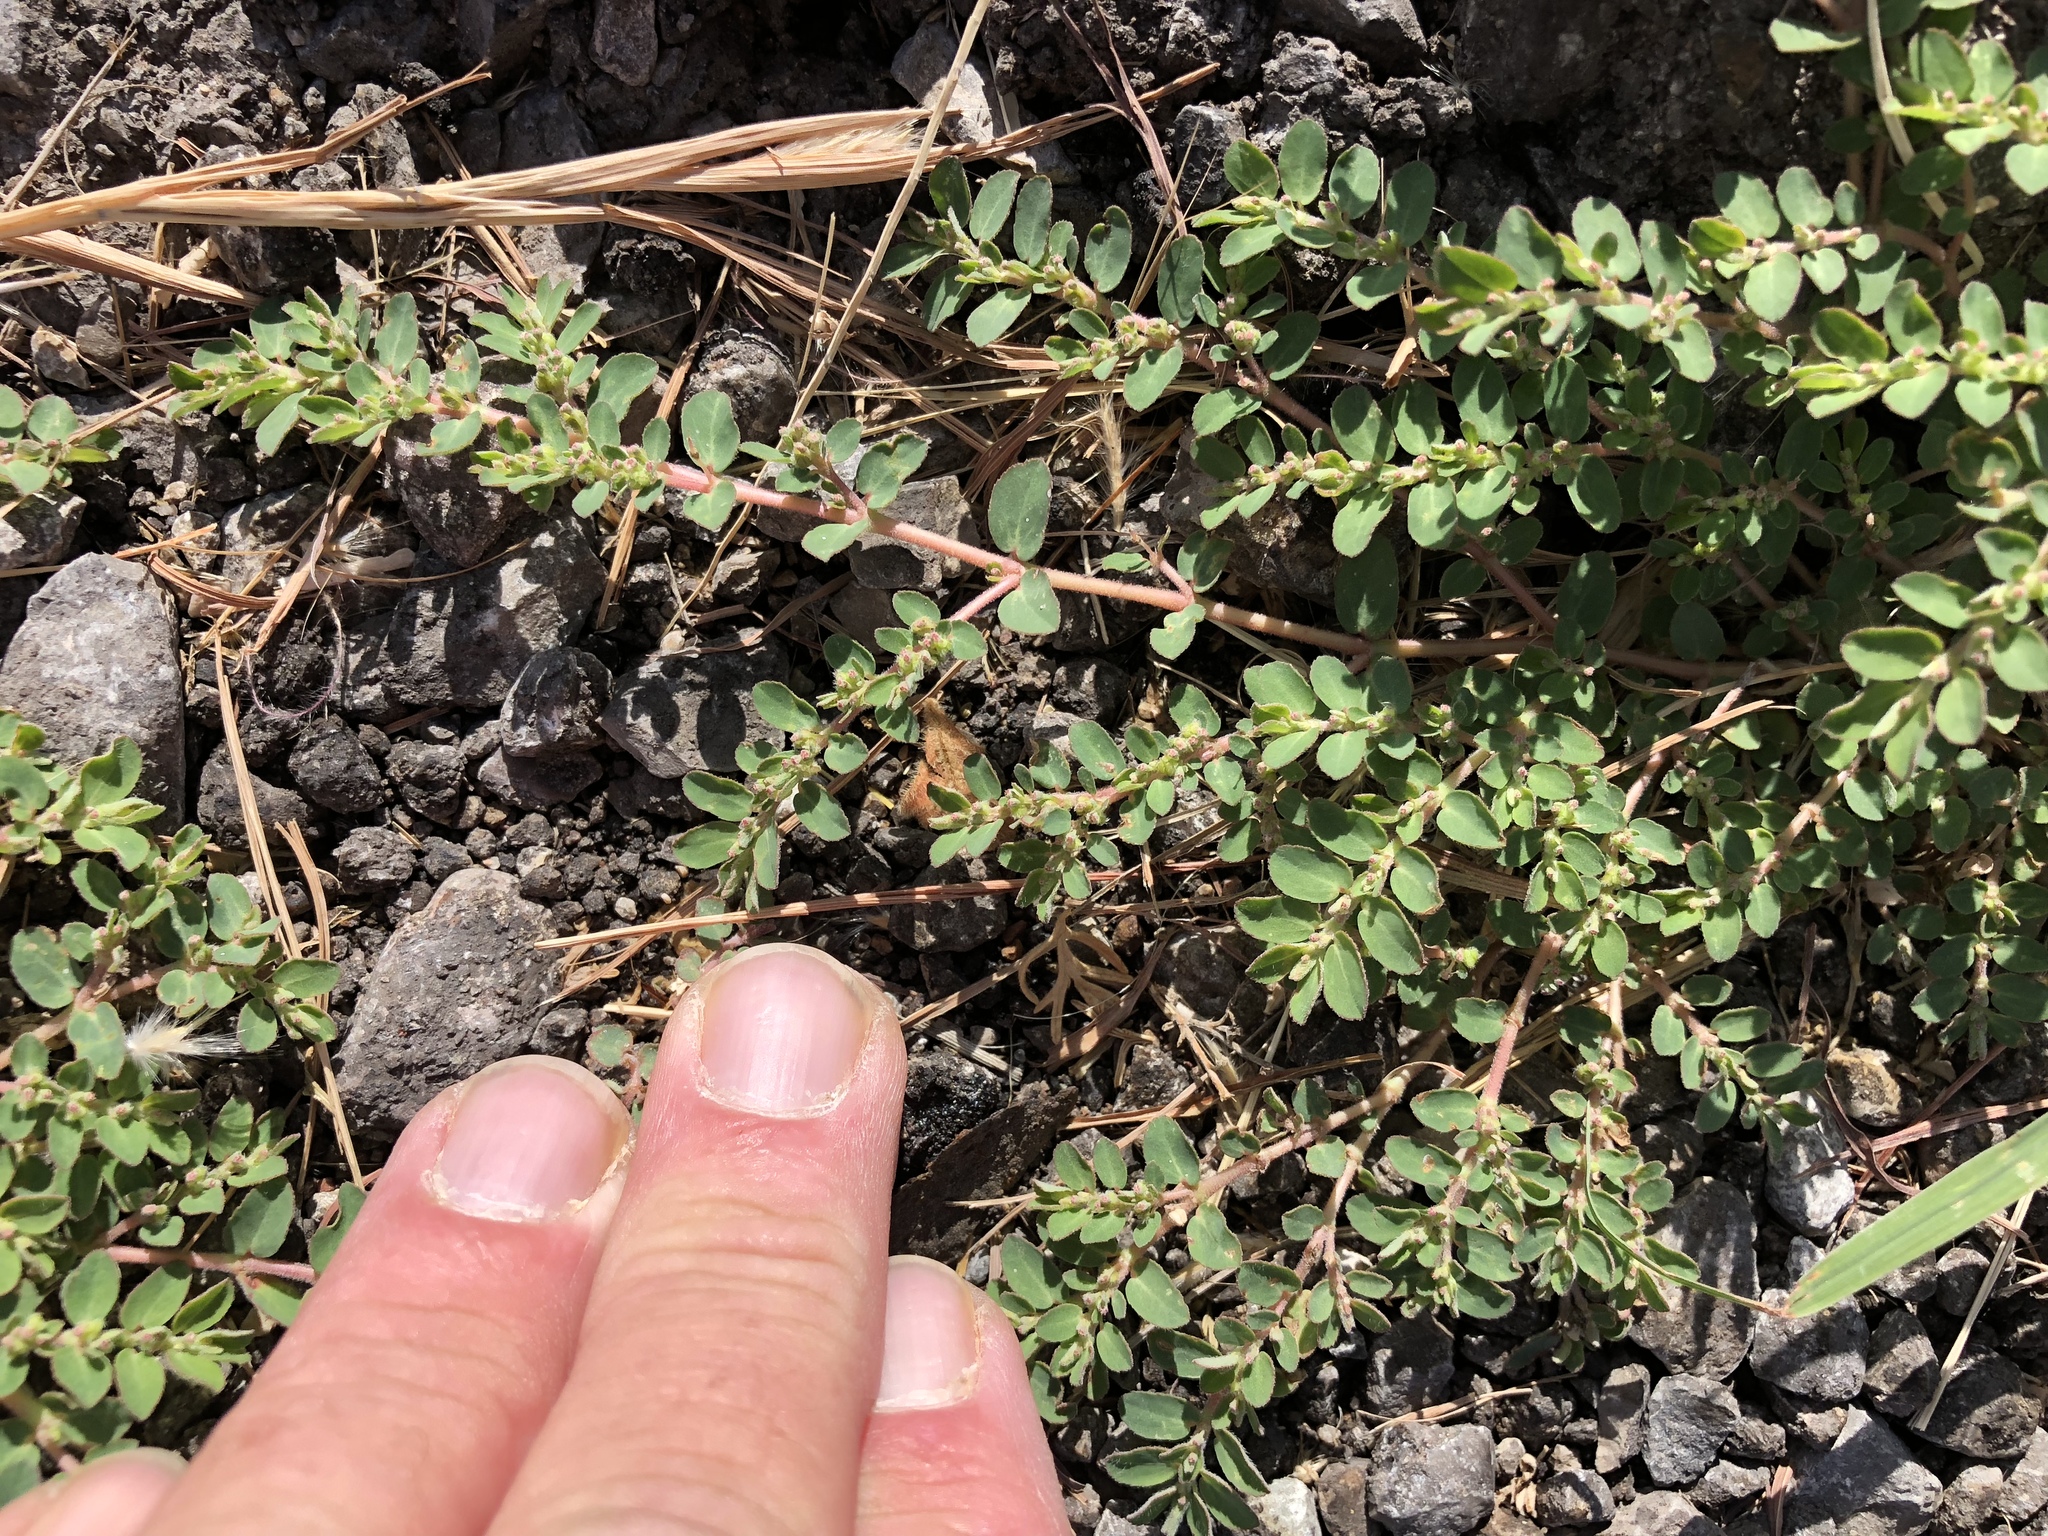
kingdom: Plantae
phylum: Tracheophyta
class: Magnoliopsida
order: Malpighiales
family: Euphorbiaceae
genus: Euphorbia
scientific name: Euphorbia prostrata
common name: Prostrate sandmat
